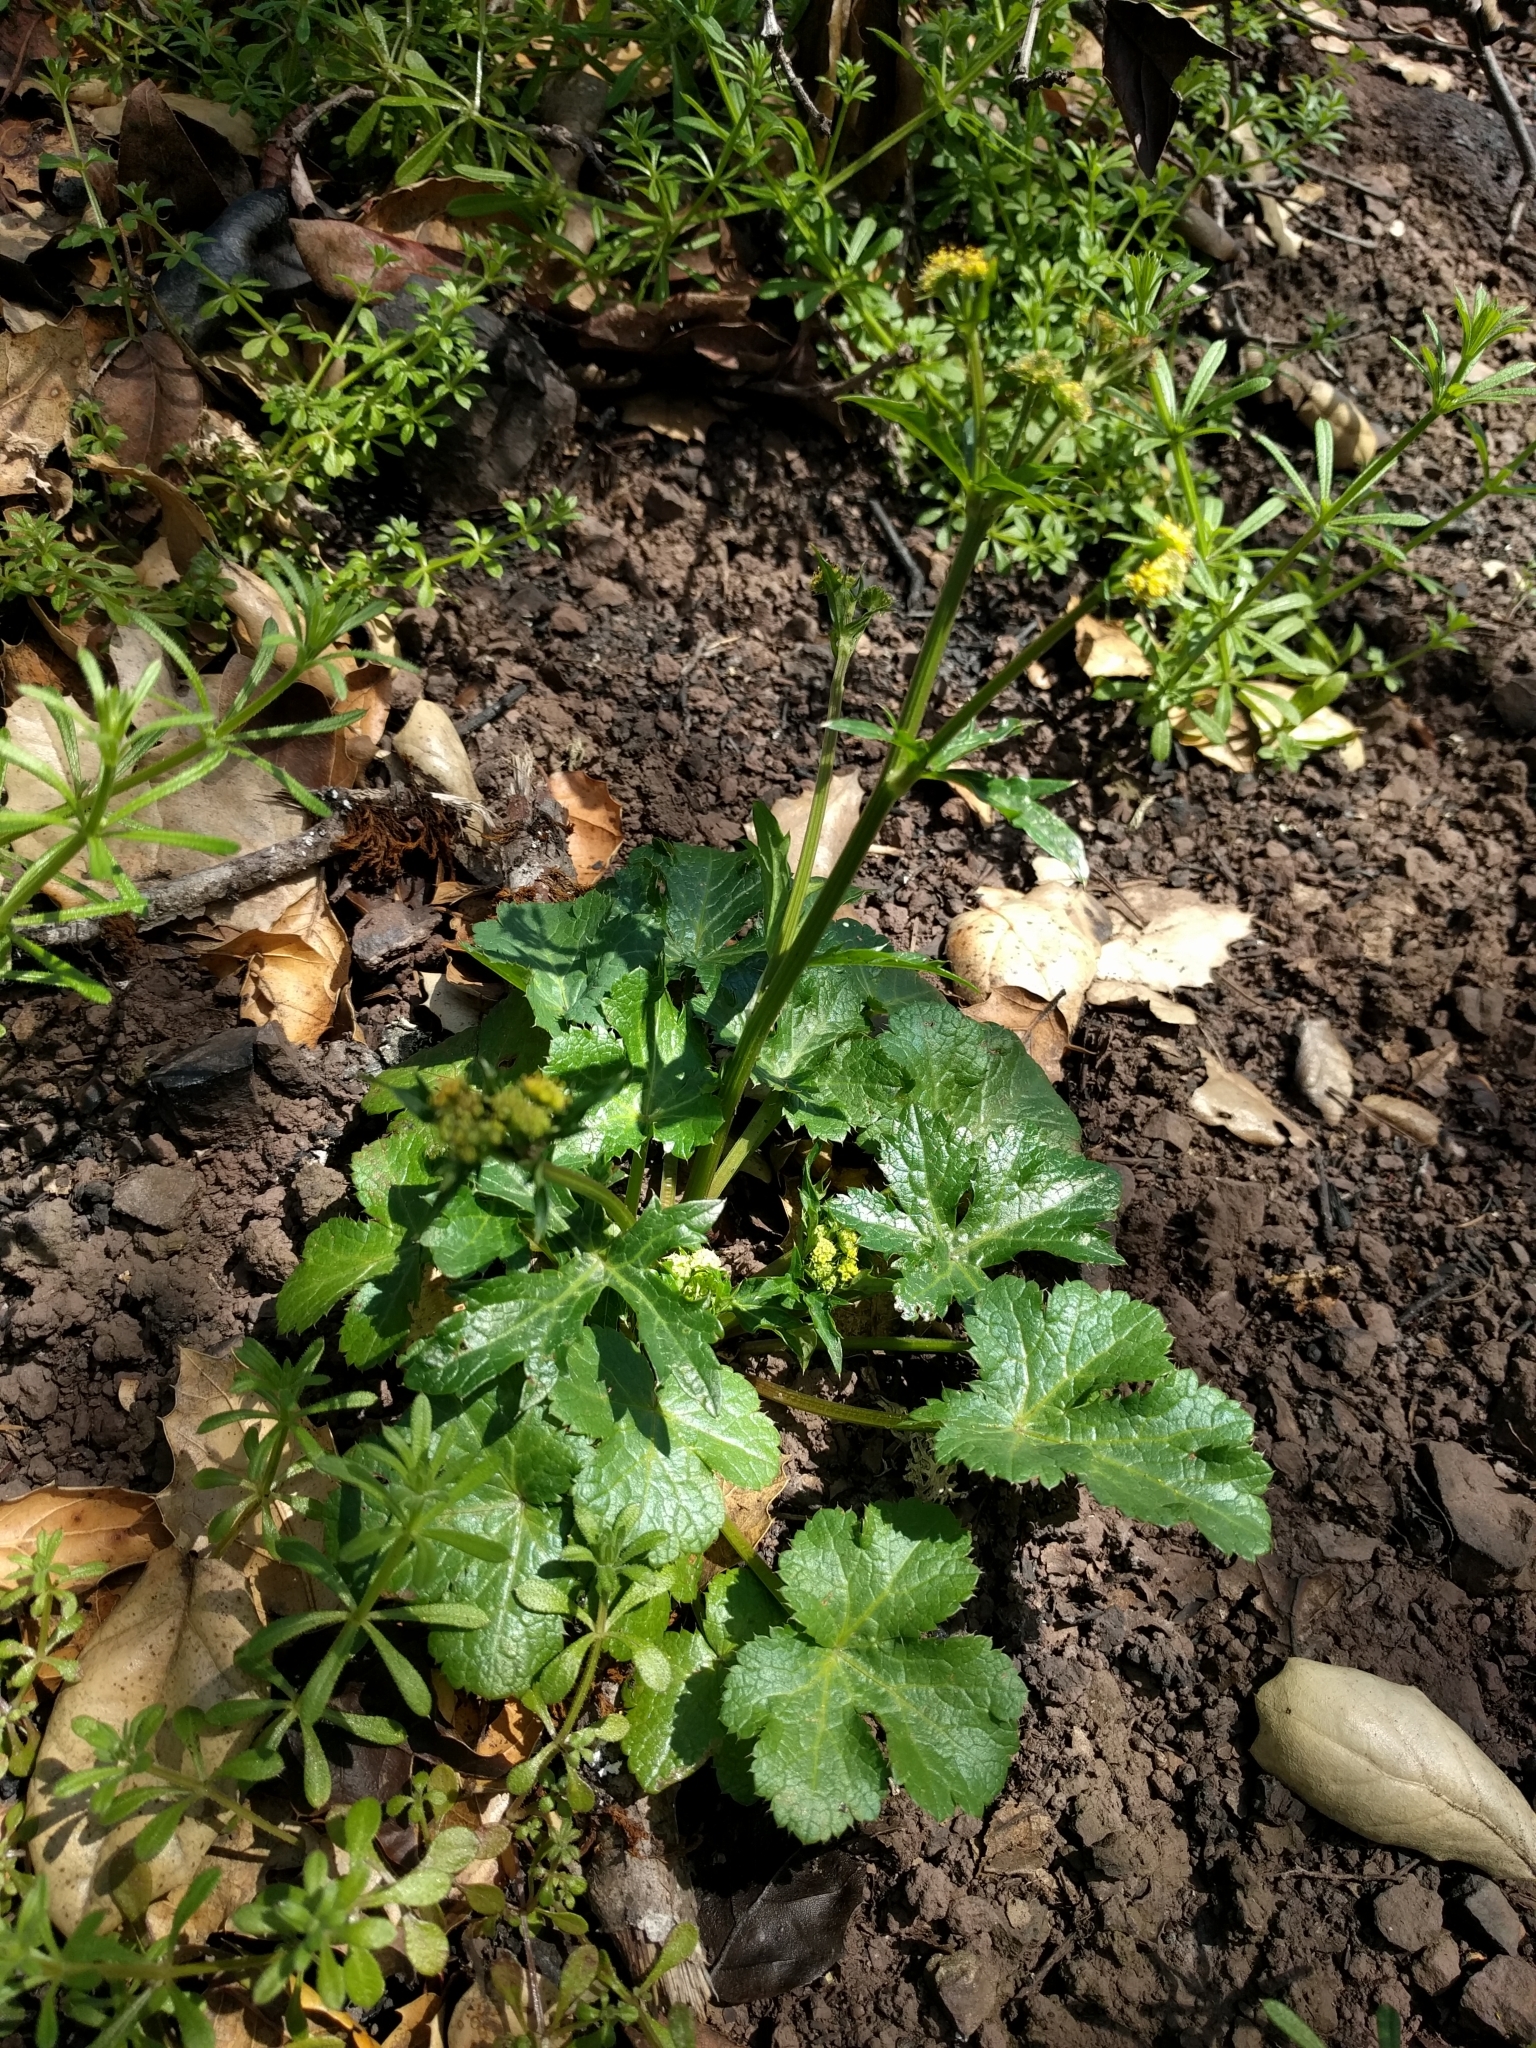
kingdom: Plantae
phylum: Tracheophyta
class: Magnoliopsida
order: Apiales
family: Apiaceae
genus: Sanicula
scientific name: Sanicula crassicaulis
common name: Western snakeroot
